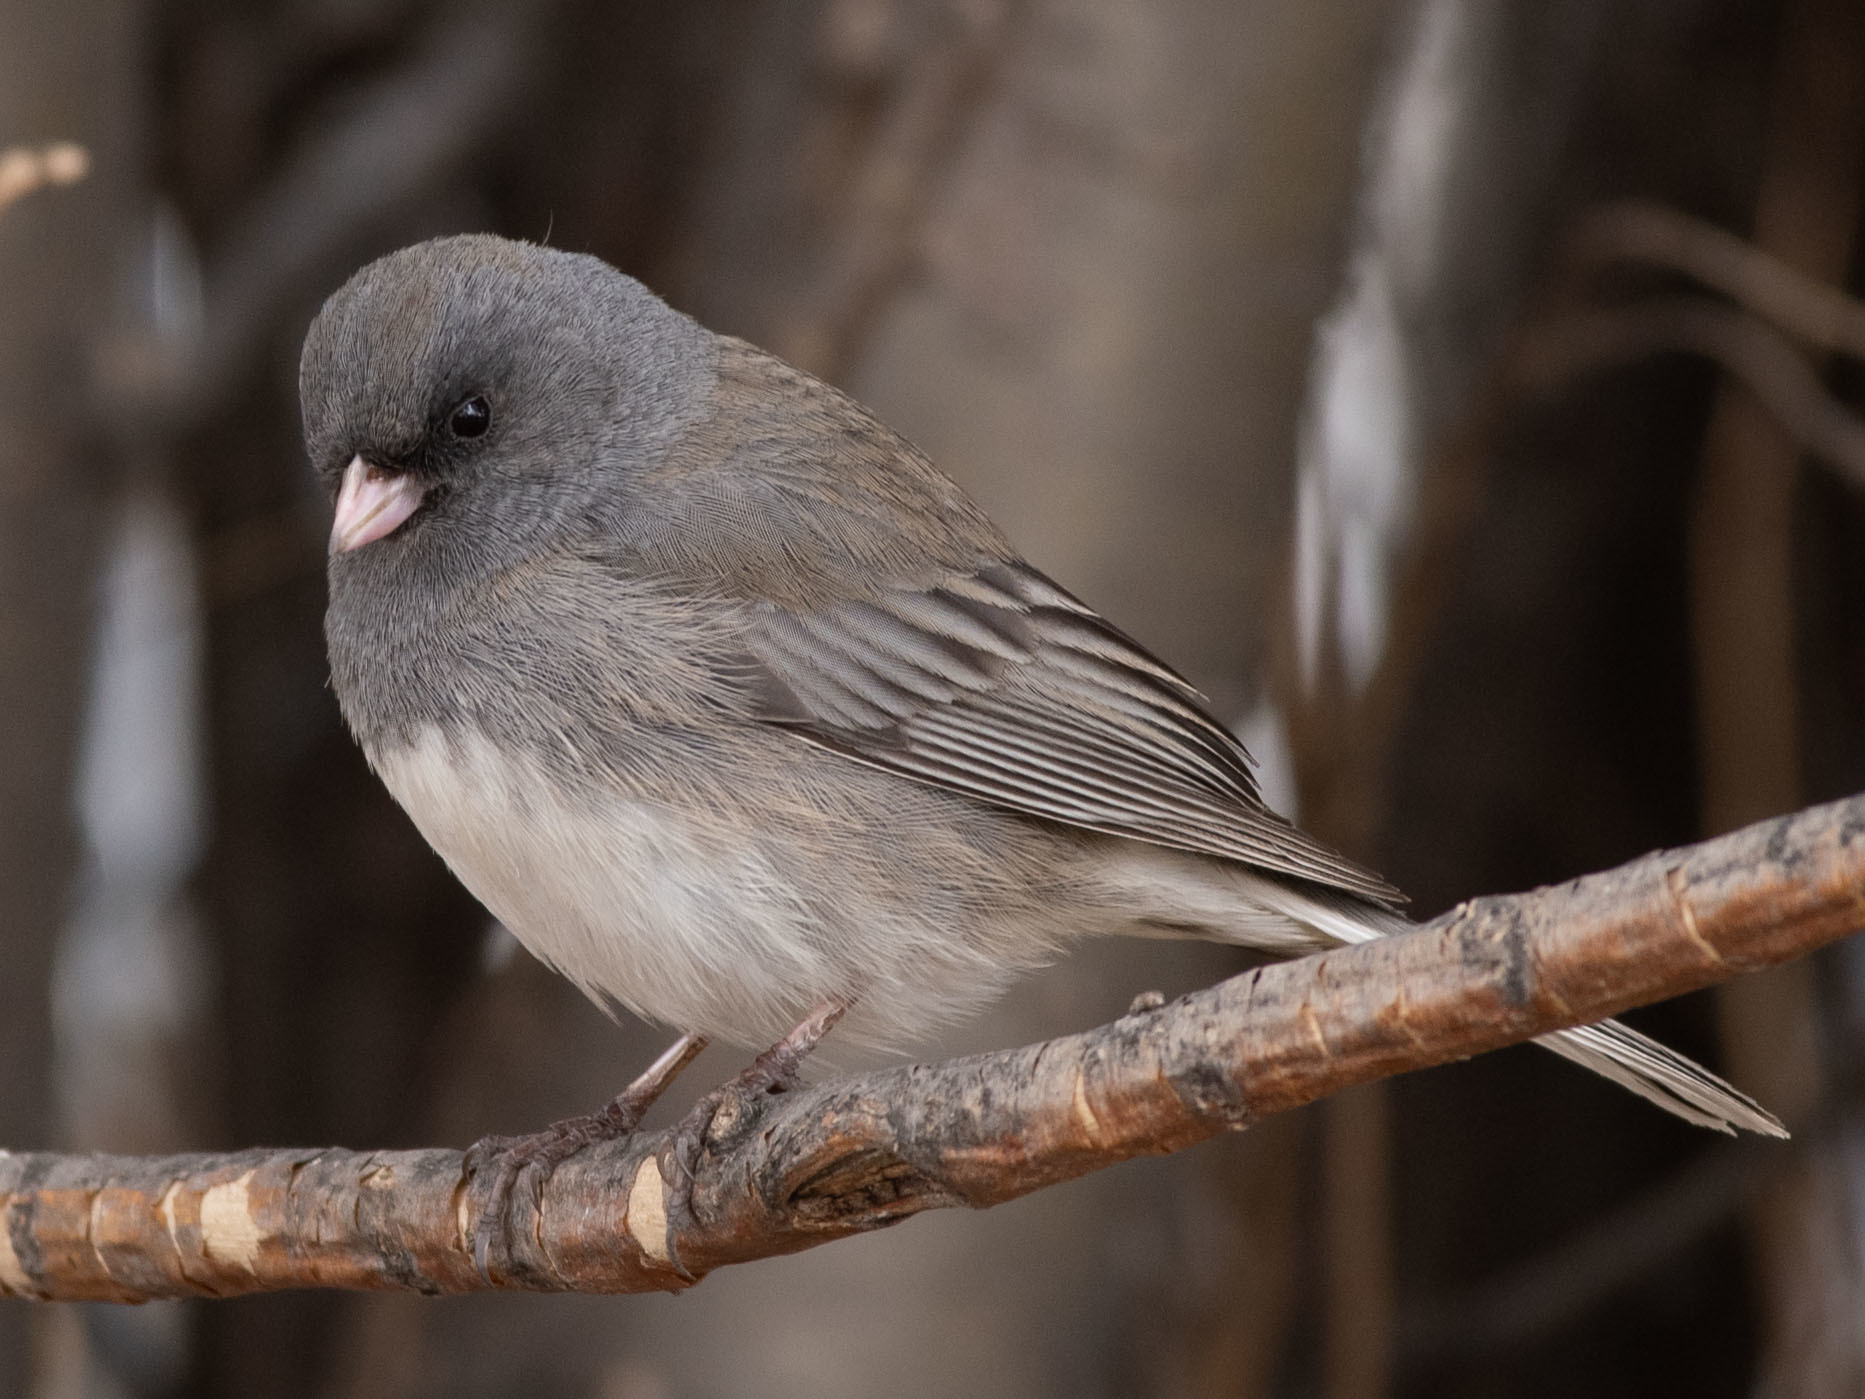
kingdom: Animalia
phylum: Chordata
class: Aves
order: Passeriformes
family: Passerellidae
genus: Junco
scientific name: Junco hyemalis
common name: Dark-eyed junco
